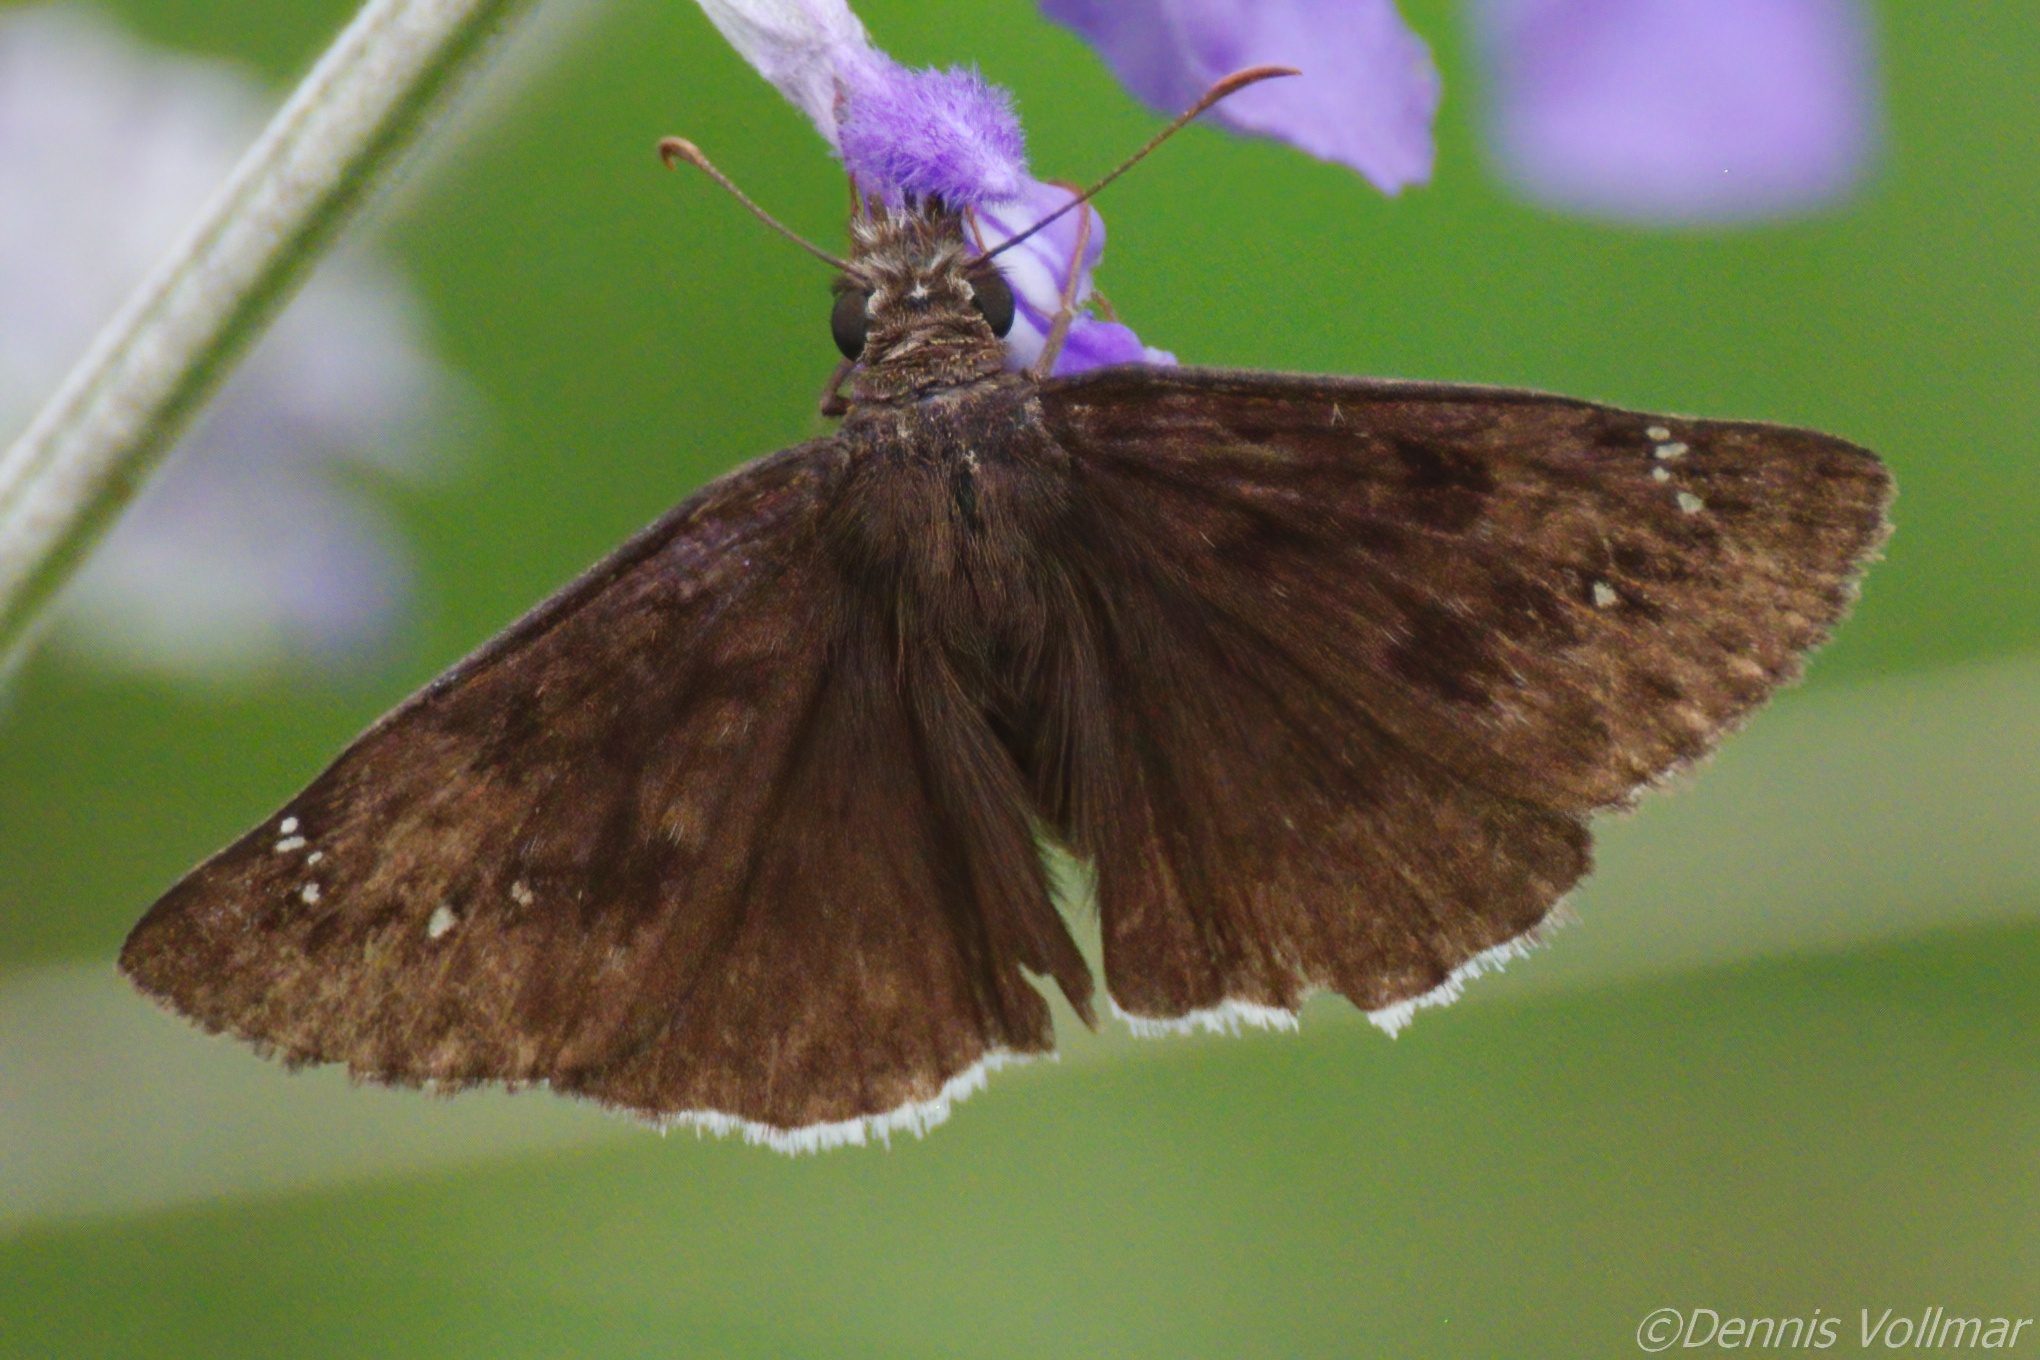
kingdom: Animalia
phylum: Arthropoda
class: Insecta
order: Lepidoptera
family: Hesperiidae
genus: Erynnis
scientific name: Erynnis tristis
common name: Mournful duskywing
